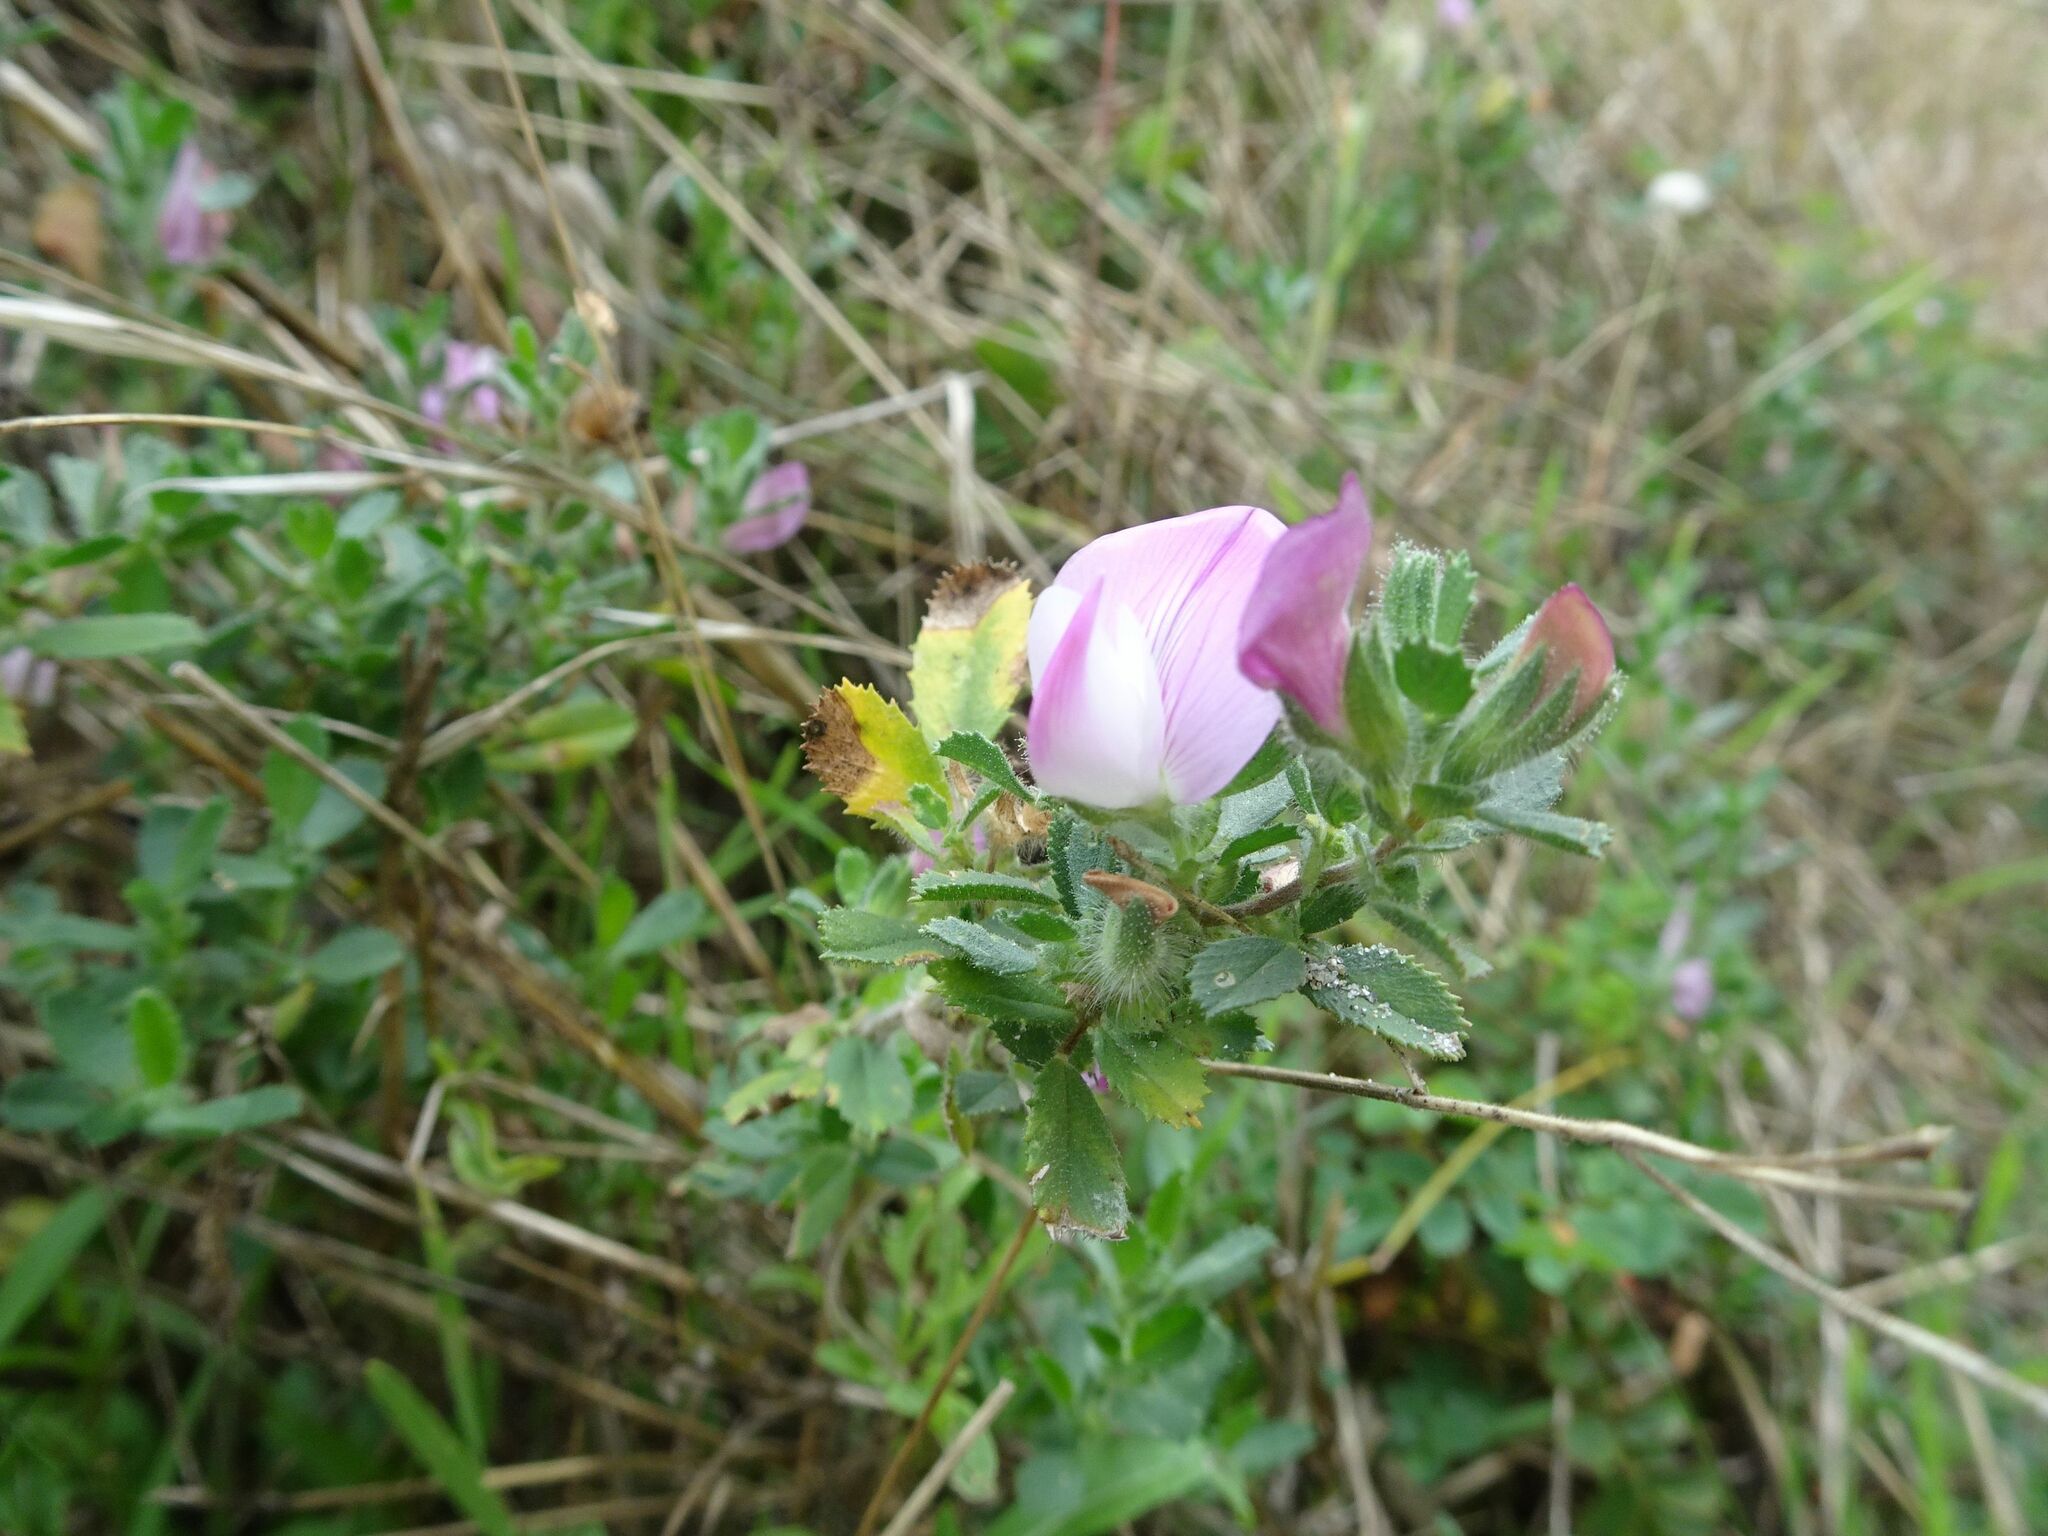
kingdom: Plantae
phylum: Tracheophyta
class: Magnoliopsida
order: Fabales
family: Fabaceae
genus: Ononis
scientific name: Ononis spinosa
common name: Spiny restharrow
